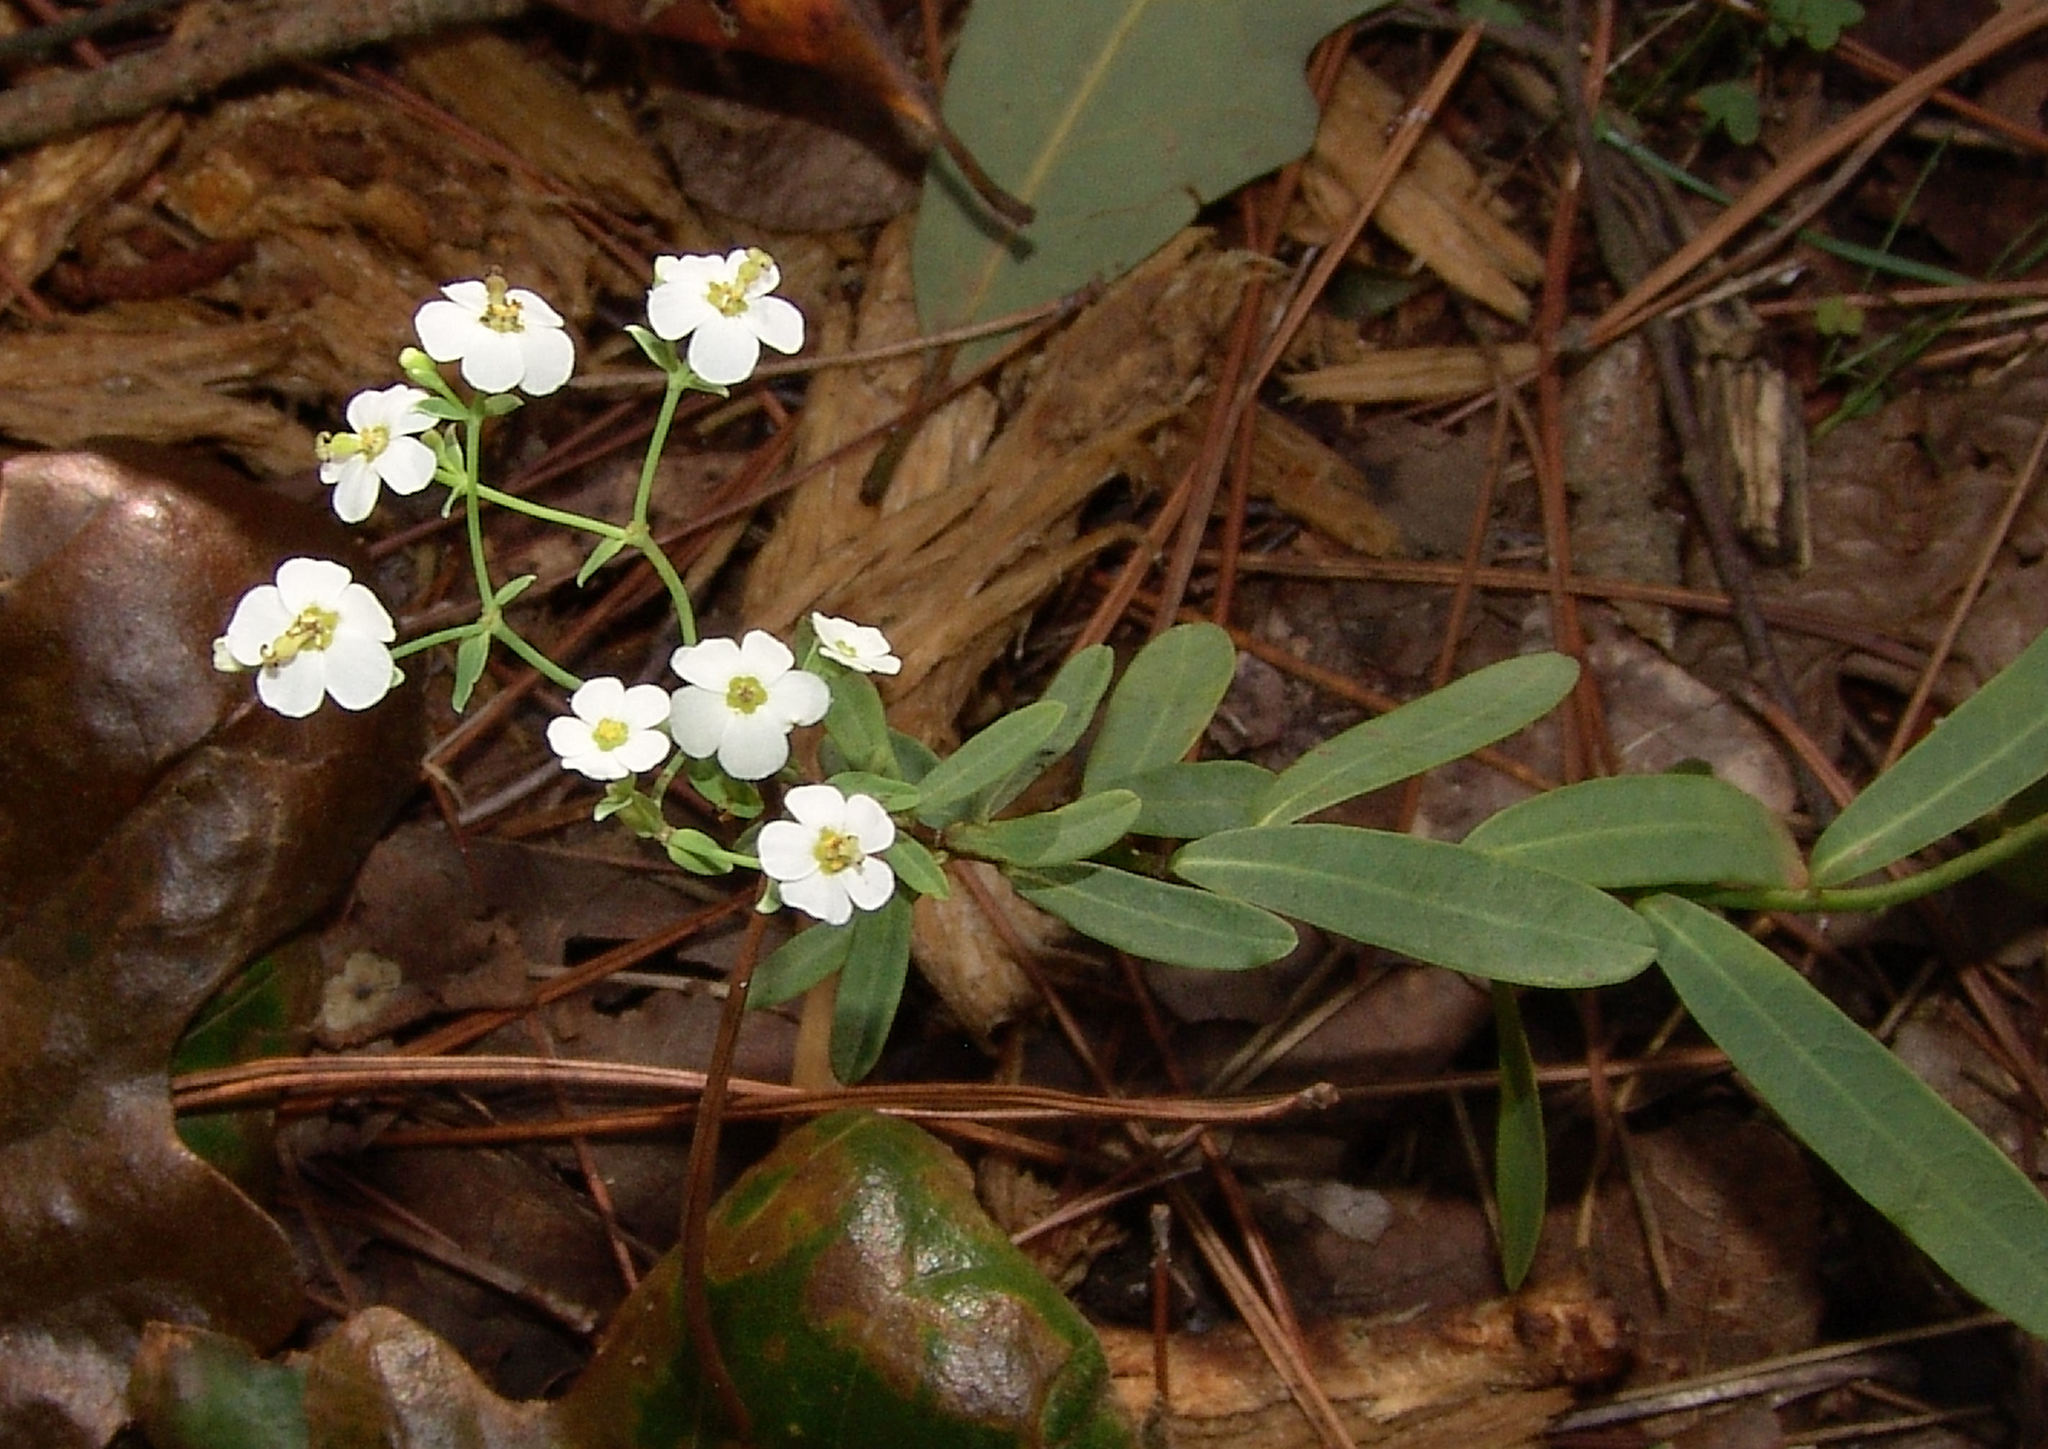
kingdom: Plantae
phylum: Tracheophyta
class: Magnoliopsida
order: Malpighiales
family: Euphorbiaceae
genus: Euphorbia
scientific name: Euphorbia corollata
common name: Flowering spurge
